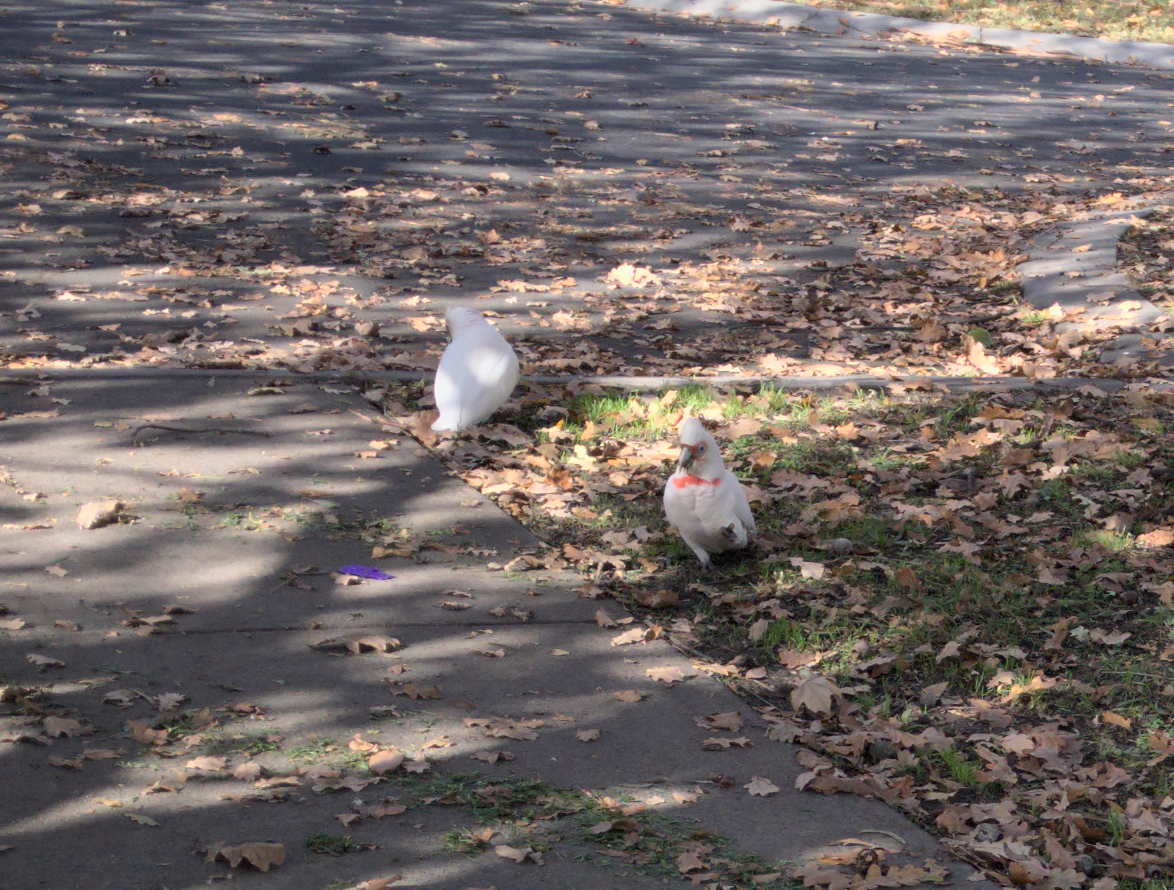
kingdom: Animalia
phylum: Chordata
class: Aves
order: Psittaciformes
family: Psittacidae
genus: Cacatua
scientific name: Cacatua tenuirostris
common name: Long-billed corella
